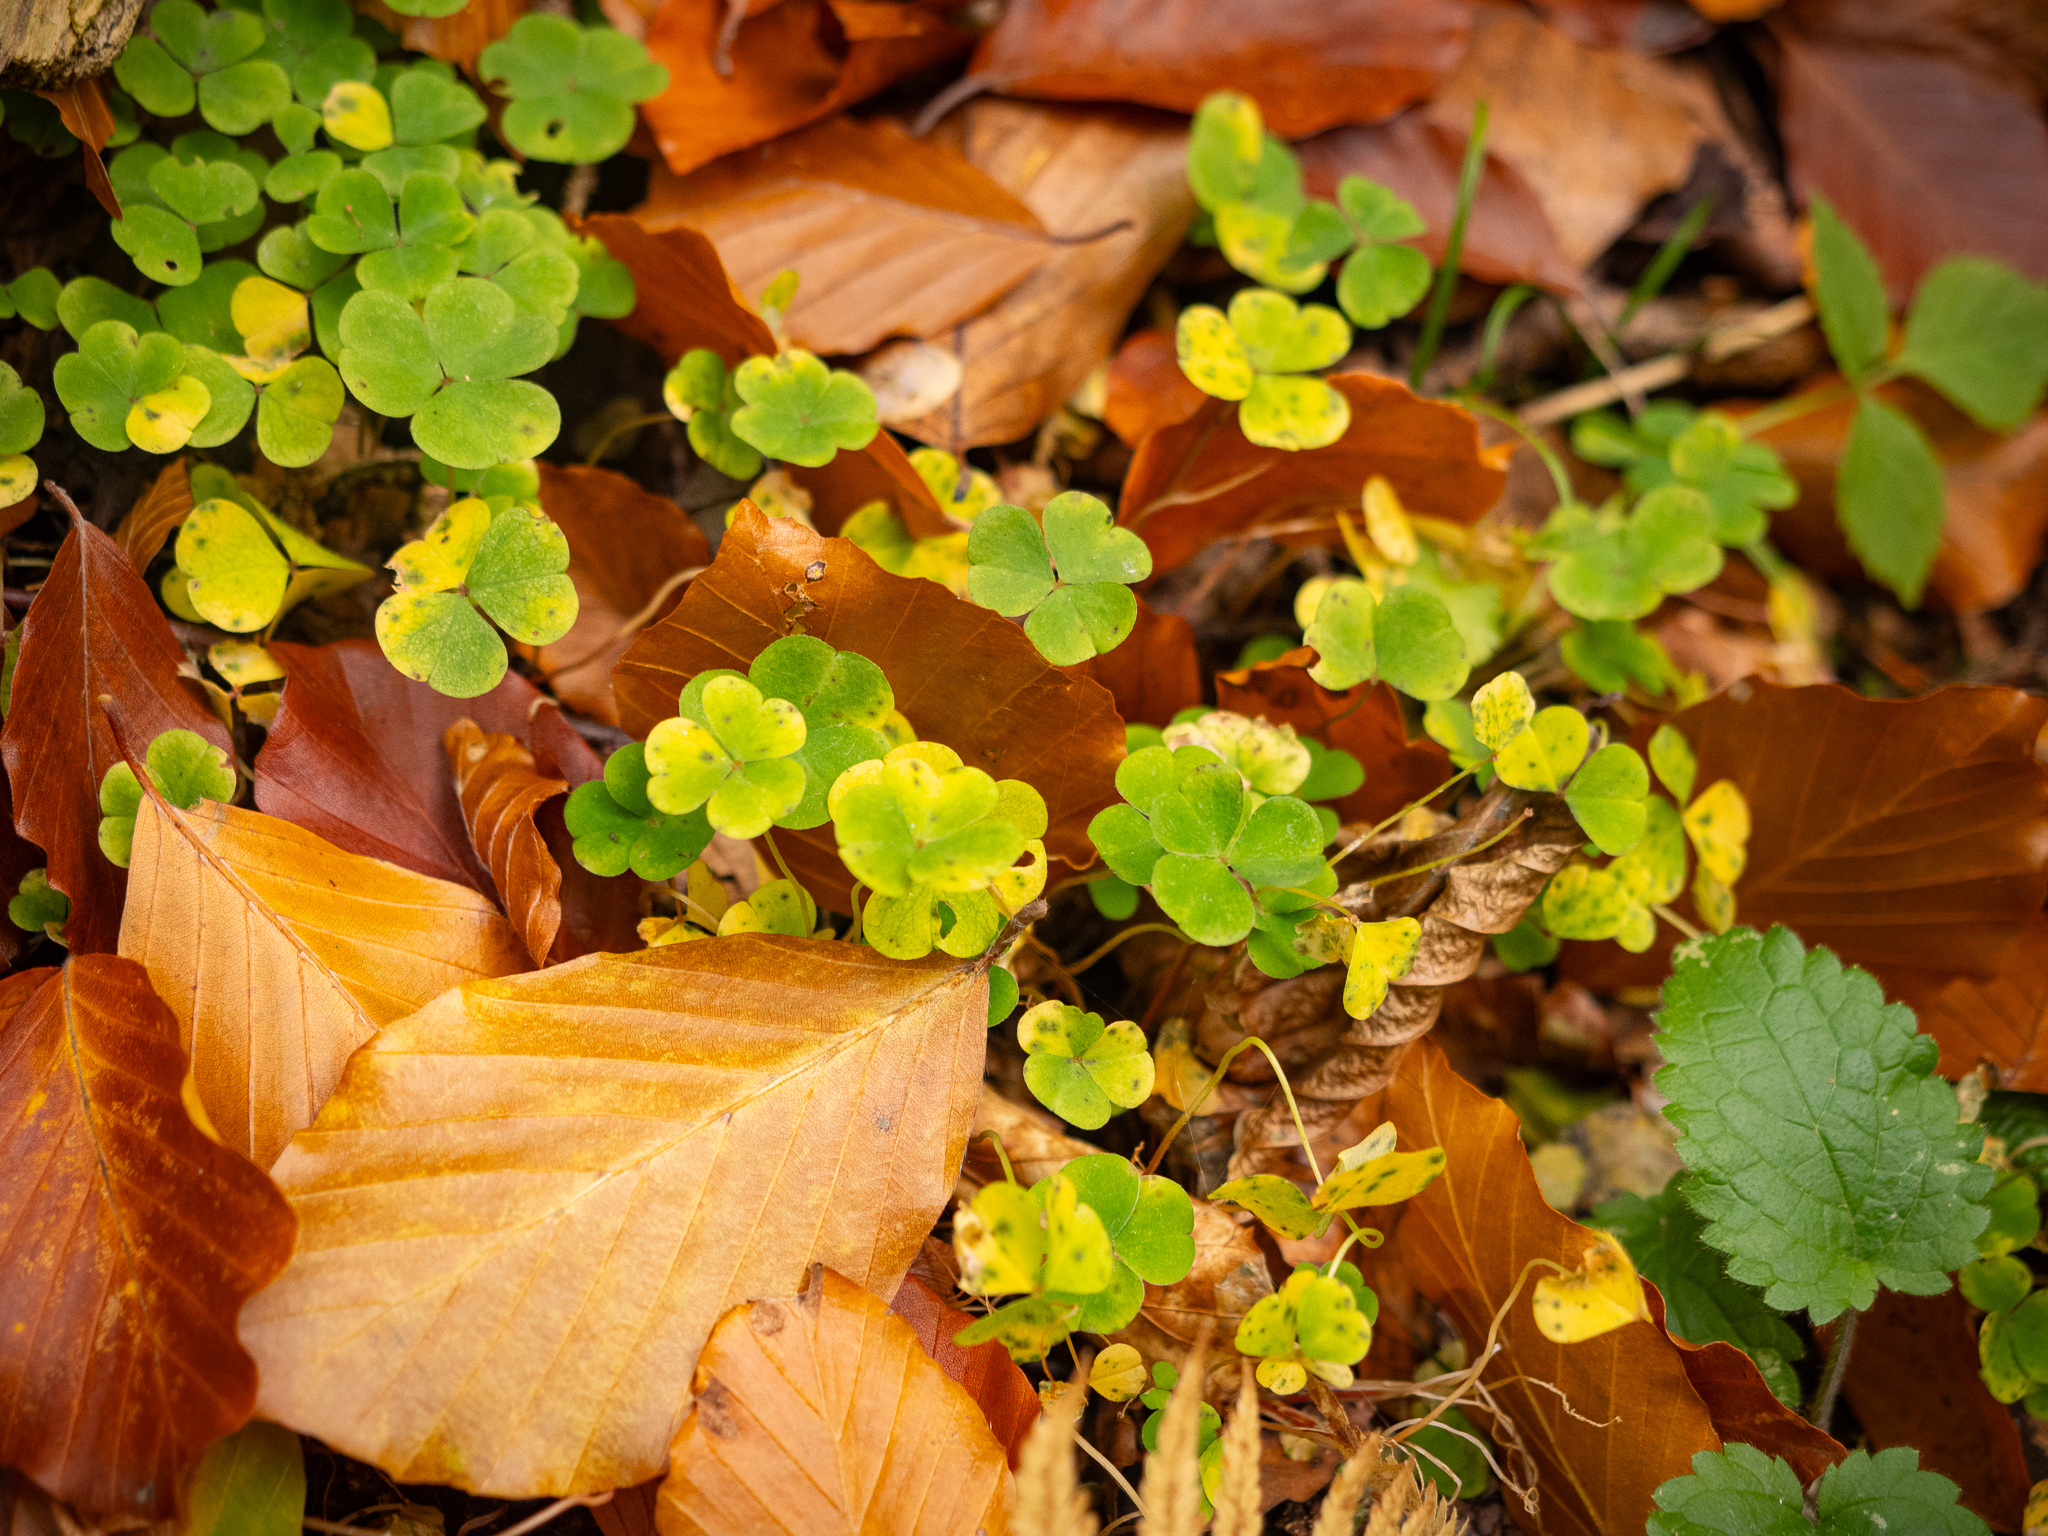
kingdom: Plantae
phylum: Tracheophyta
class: Magnoliopsida
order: Oxalidales
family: Oxalidaceae
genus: Oxalis
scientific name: Oxalis acetosella
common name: Wood-sorrel
